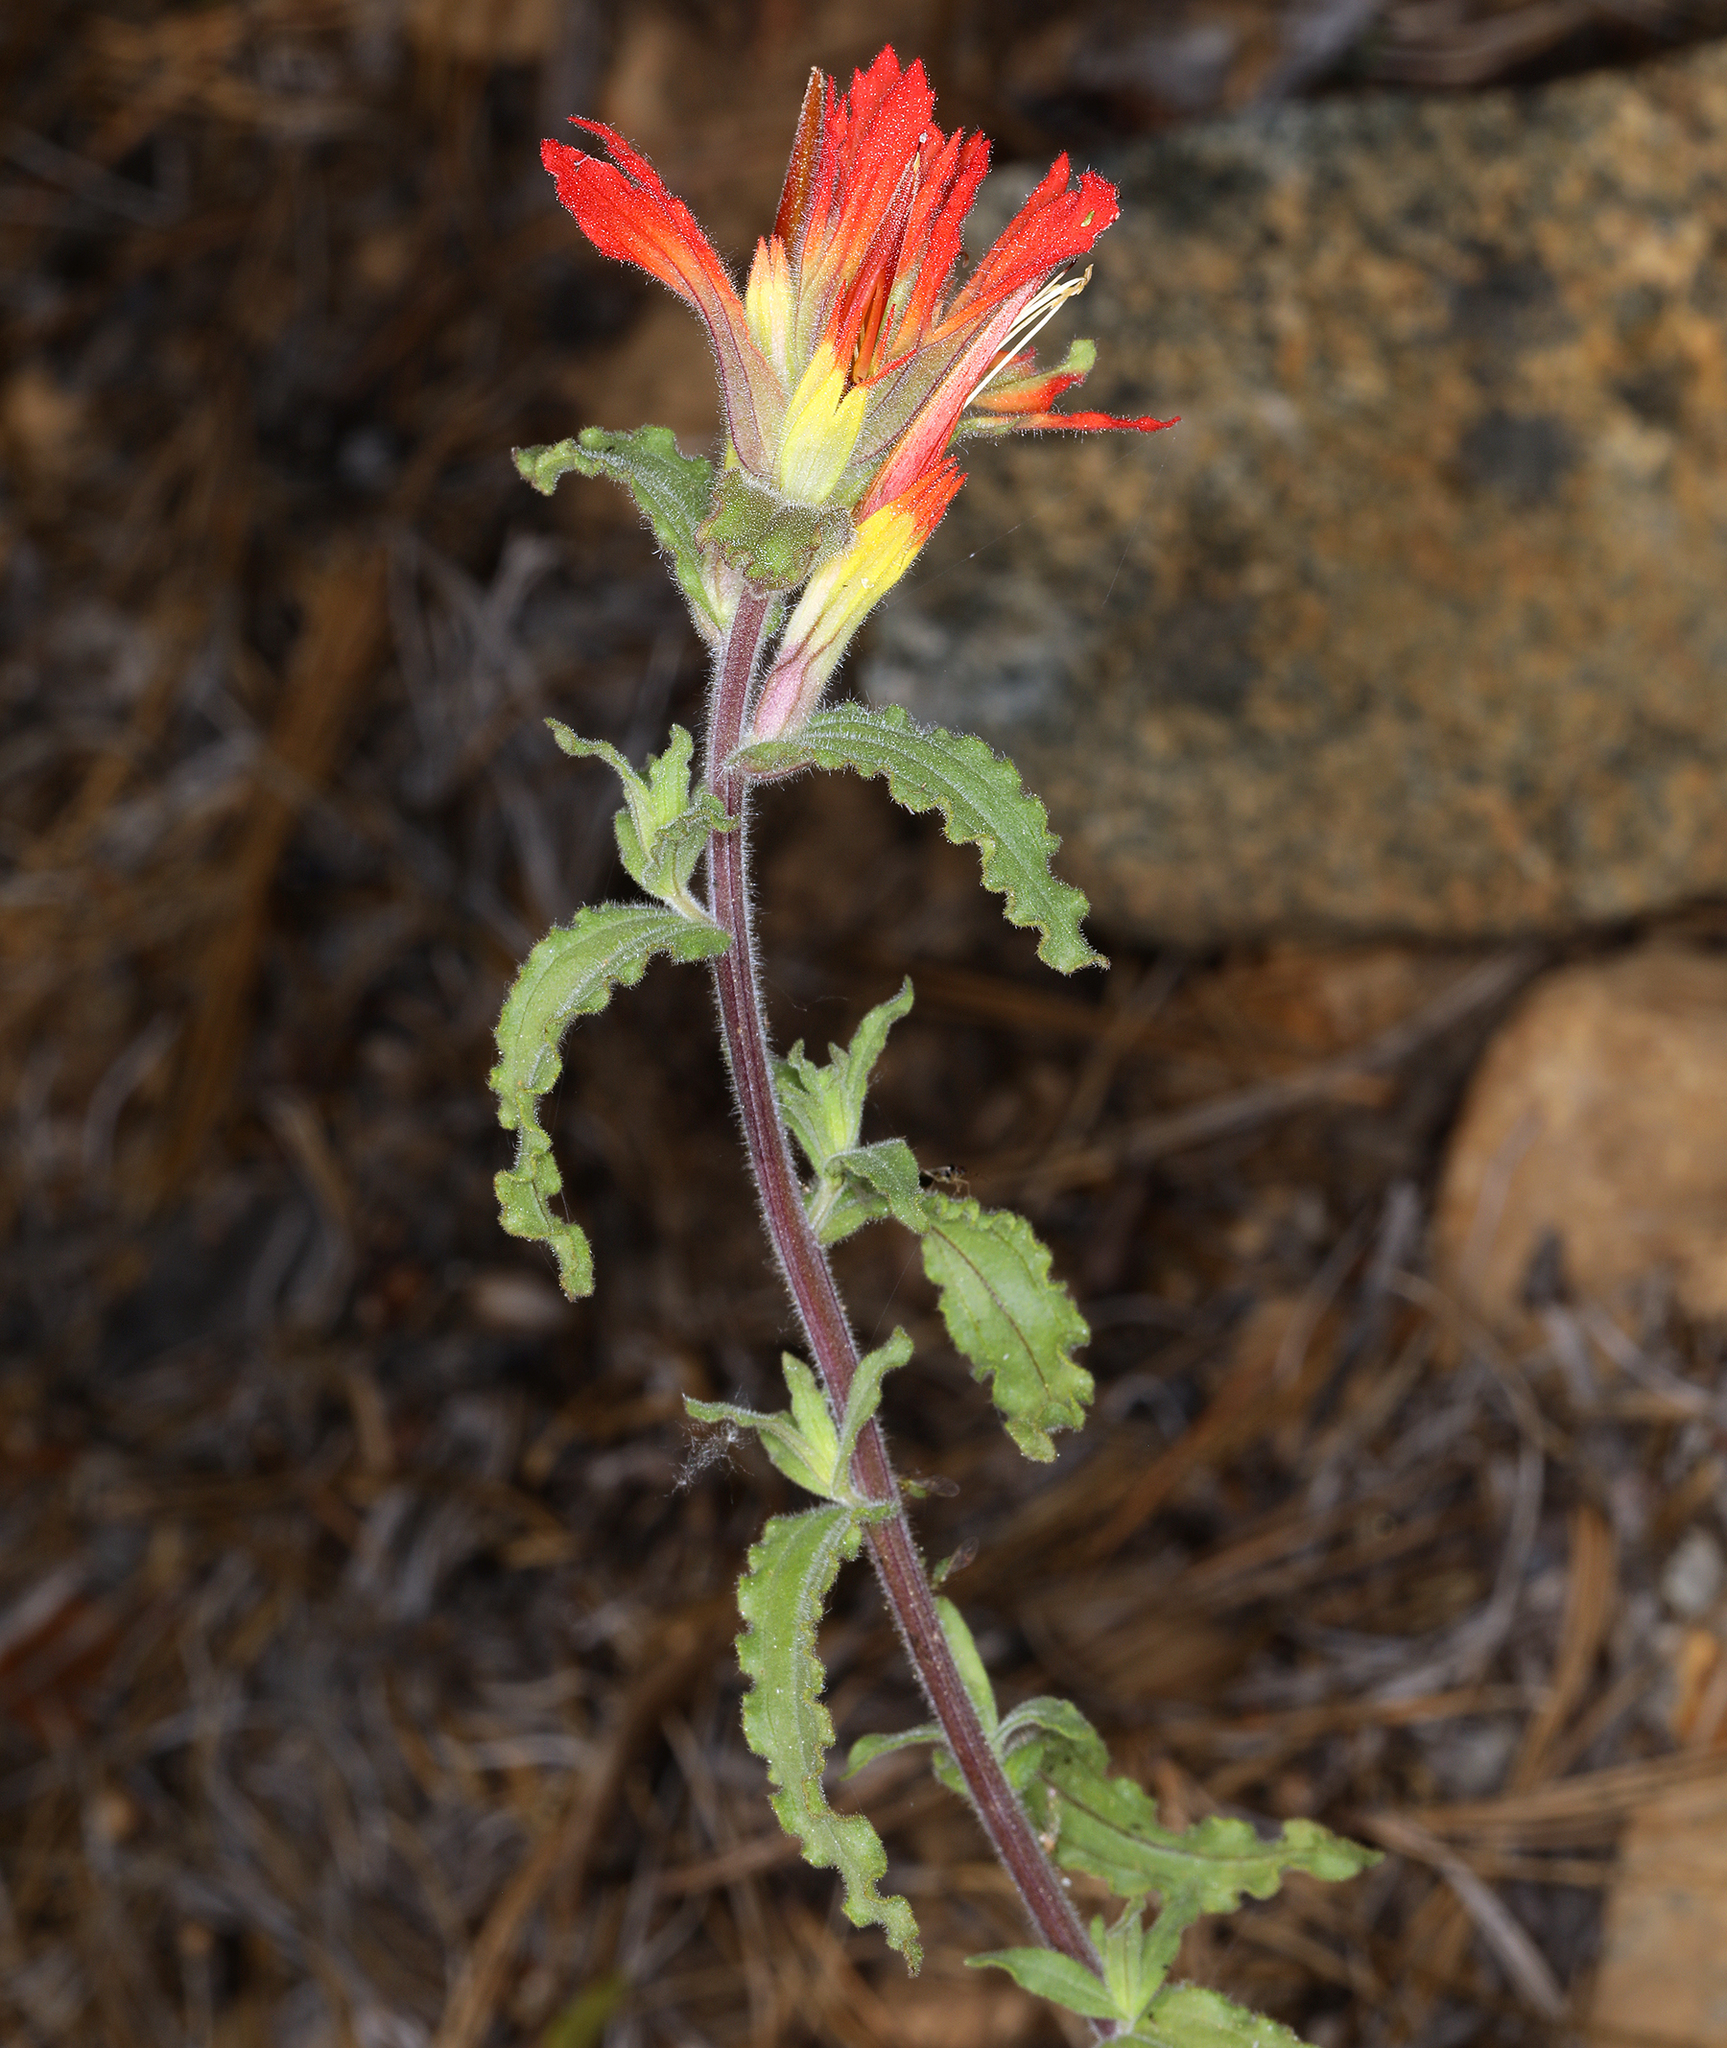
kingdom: Plantae
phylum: Tracheophyta
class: Magnoliopsida
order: Lamiales
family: Orobanchaceae
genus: Castilleja
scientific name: Castilleja applegatei
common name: Wavy-leaf paintbrush
